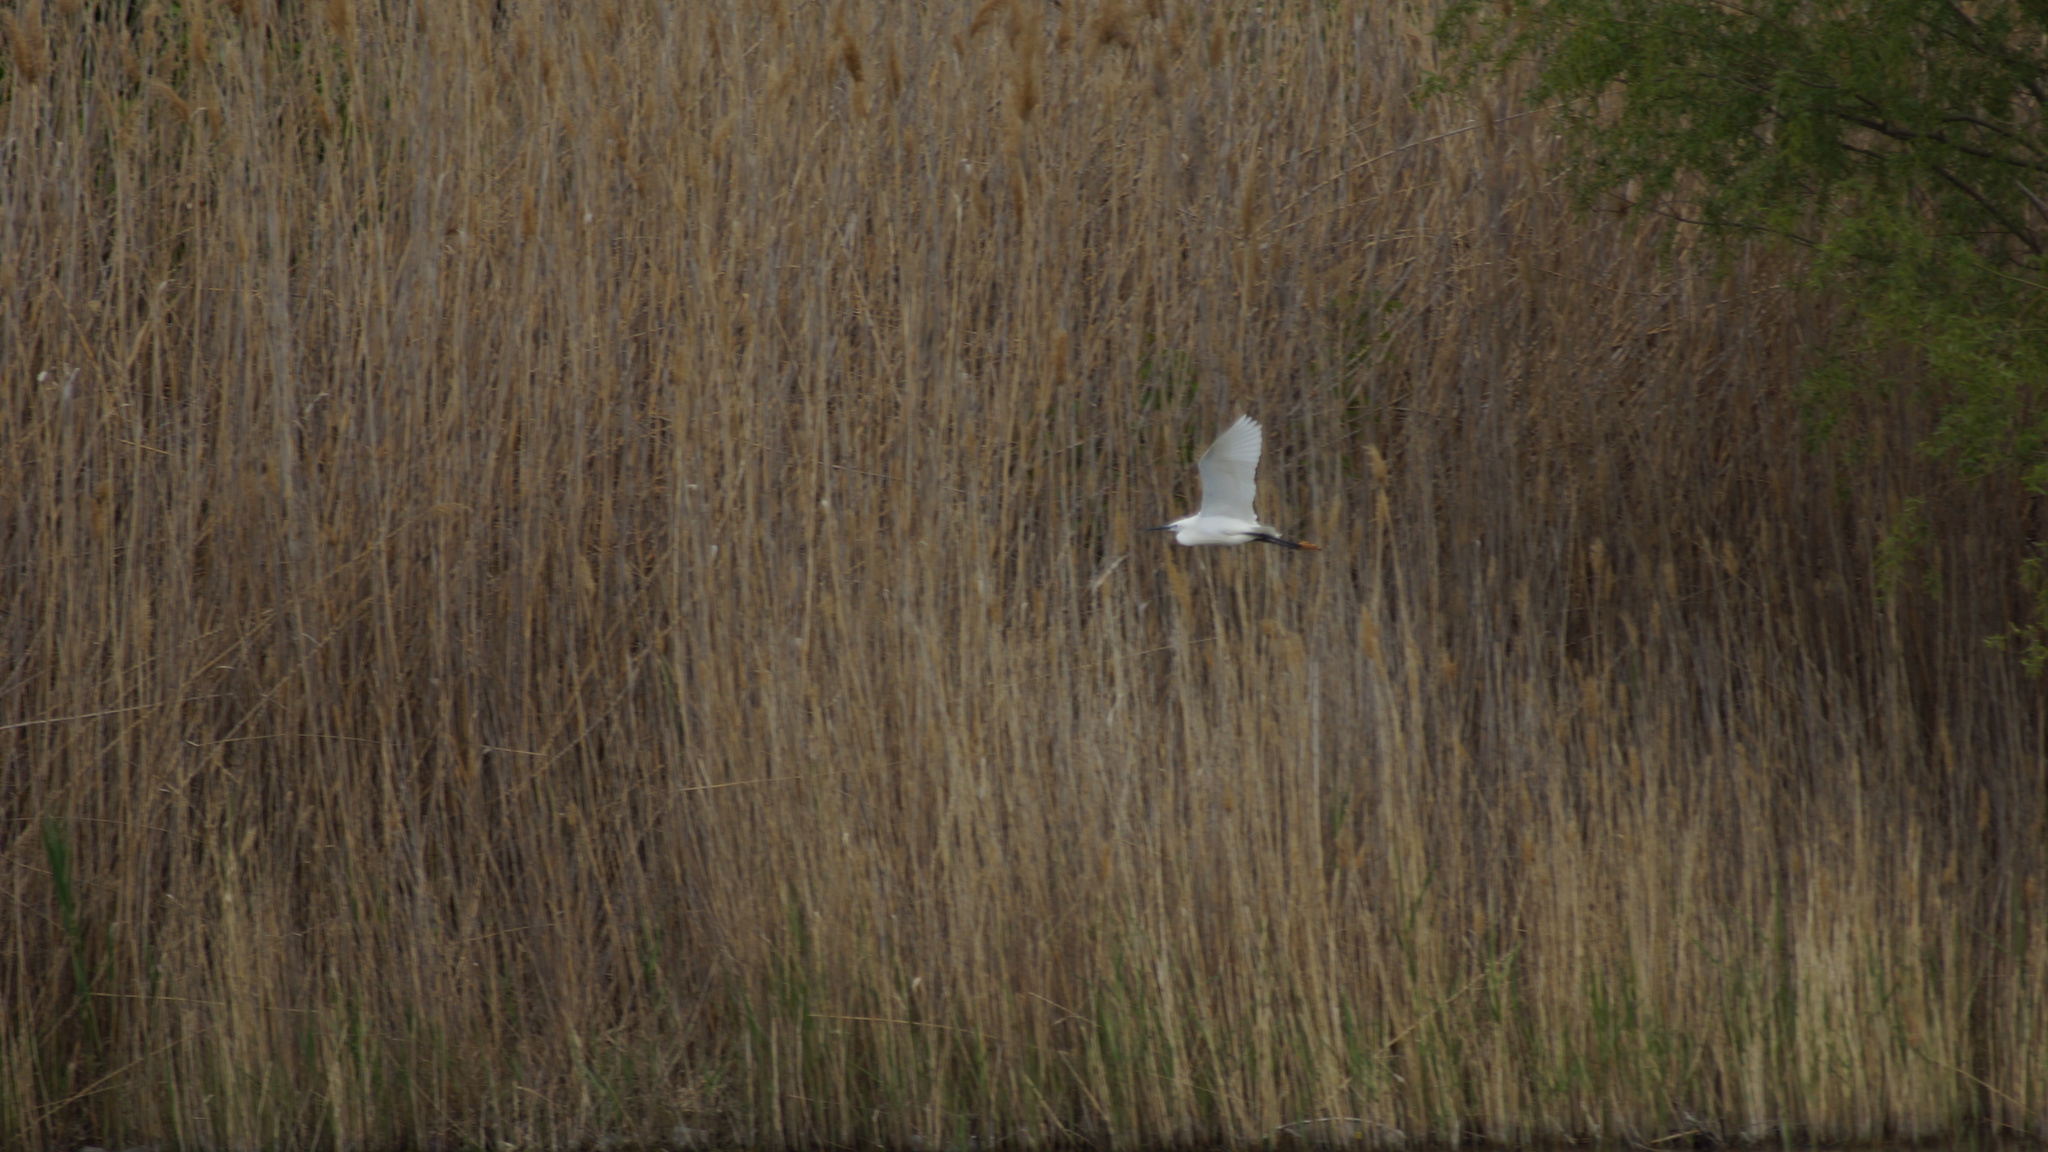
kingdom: Animalia
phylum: Chordata
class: Aves
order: Pelecaniformes
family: Ardeidae
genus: Egretta
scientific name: Egretta garzetta
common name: Little egret
